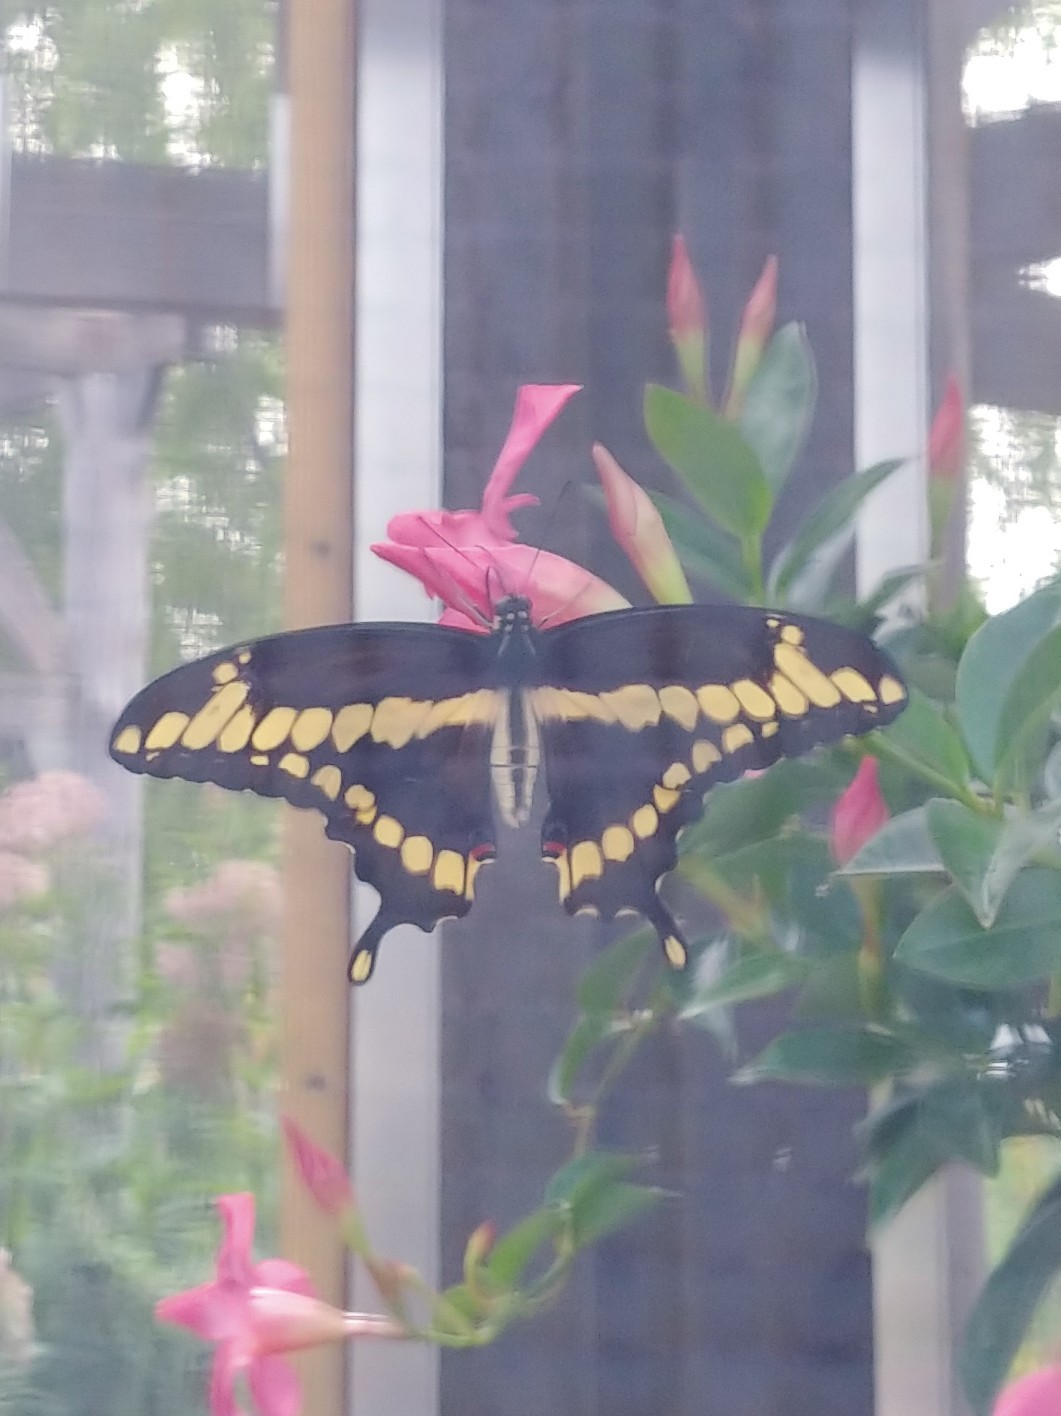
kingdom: Animalia
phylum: Arthropoda
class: Insecta
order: Lepidoptera
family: Papilionidae
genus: Papilio
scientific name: Papilio cresphontes
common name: Giant swallowtail
